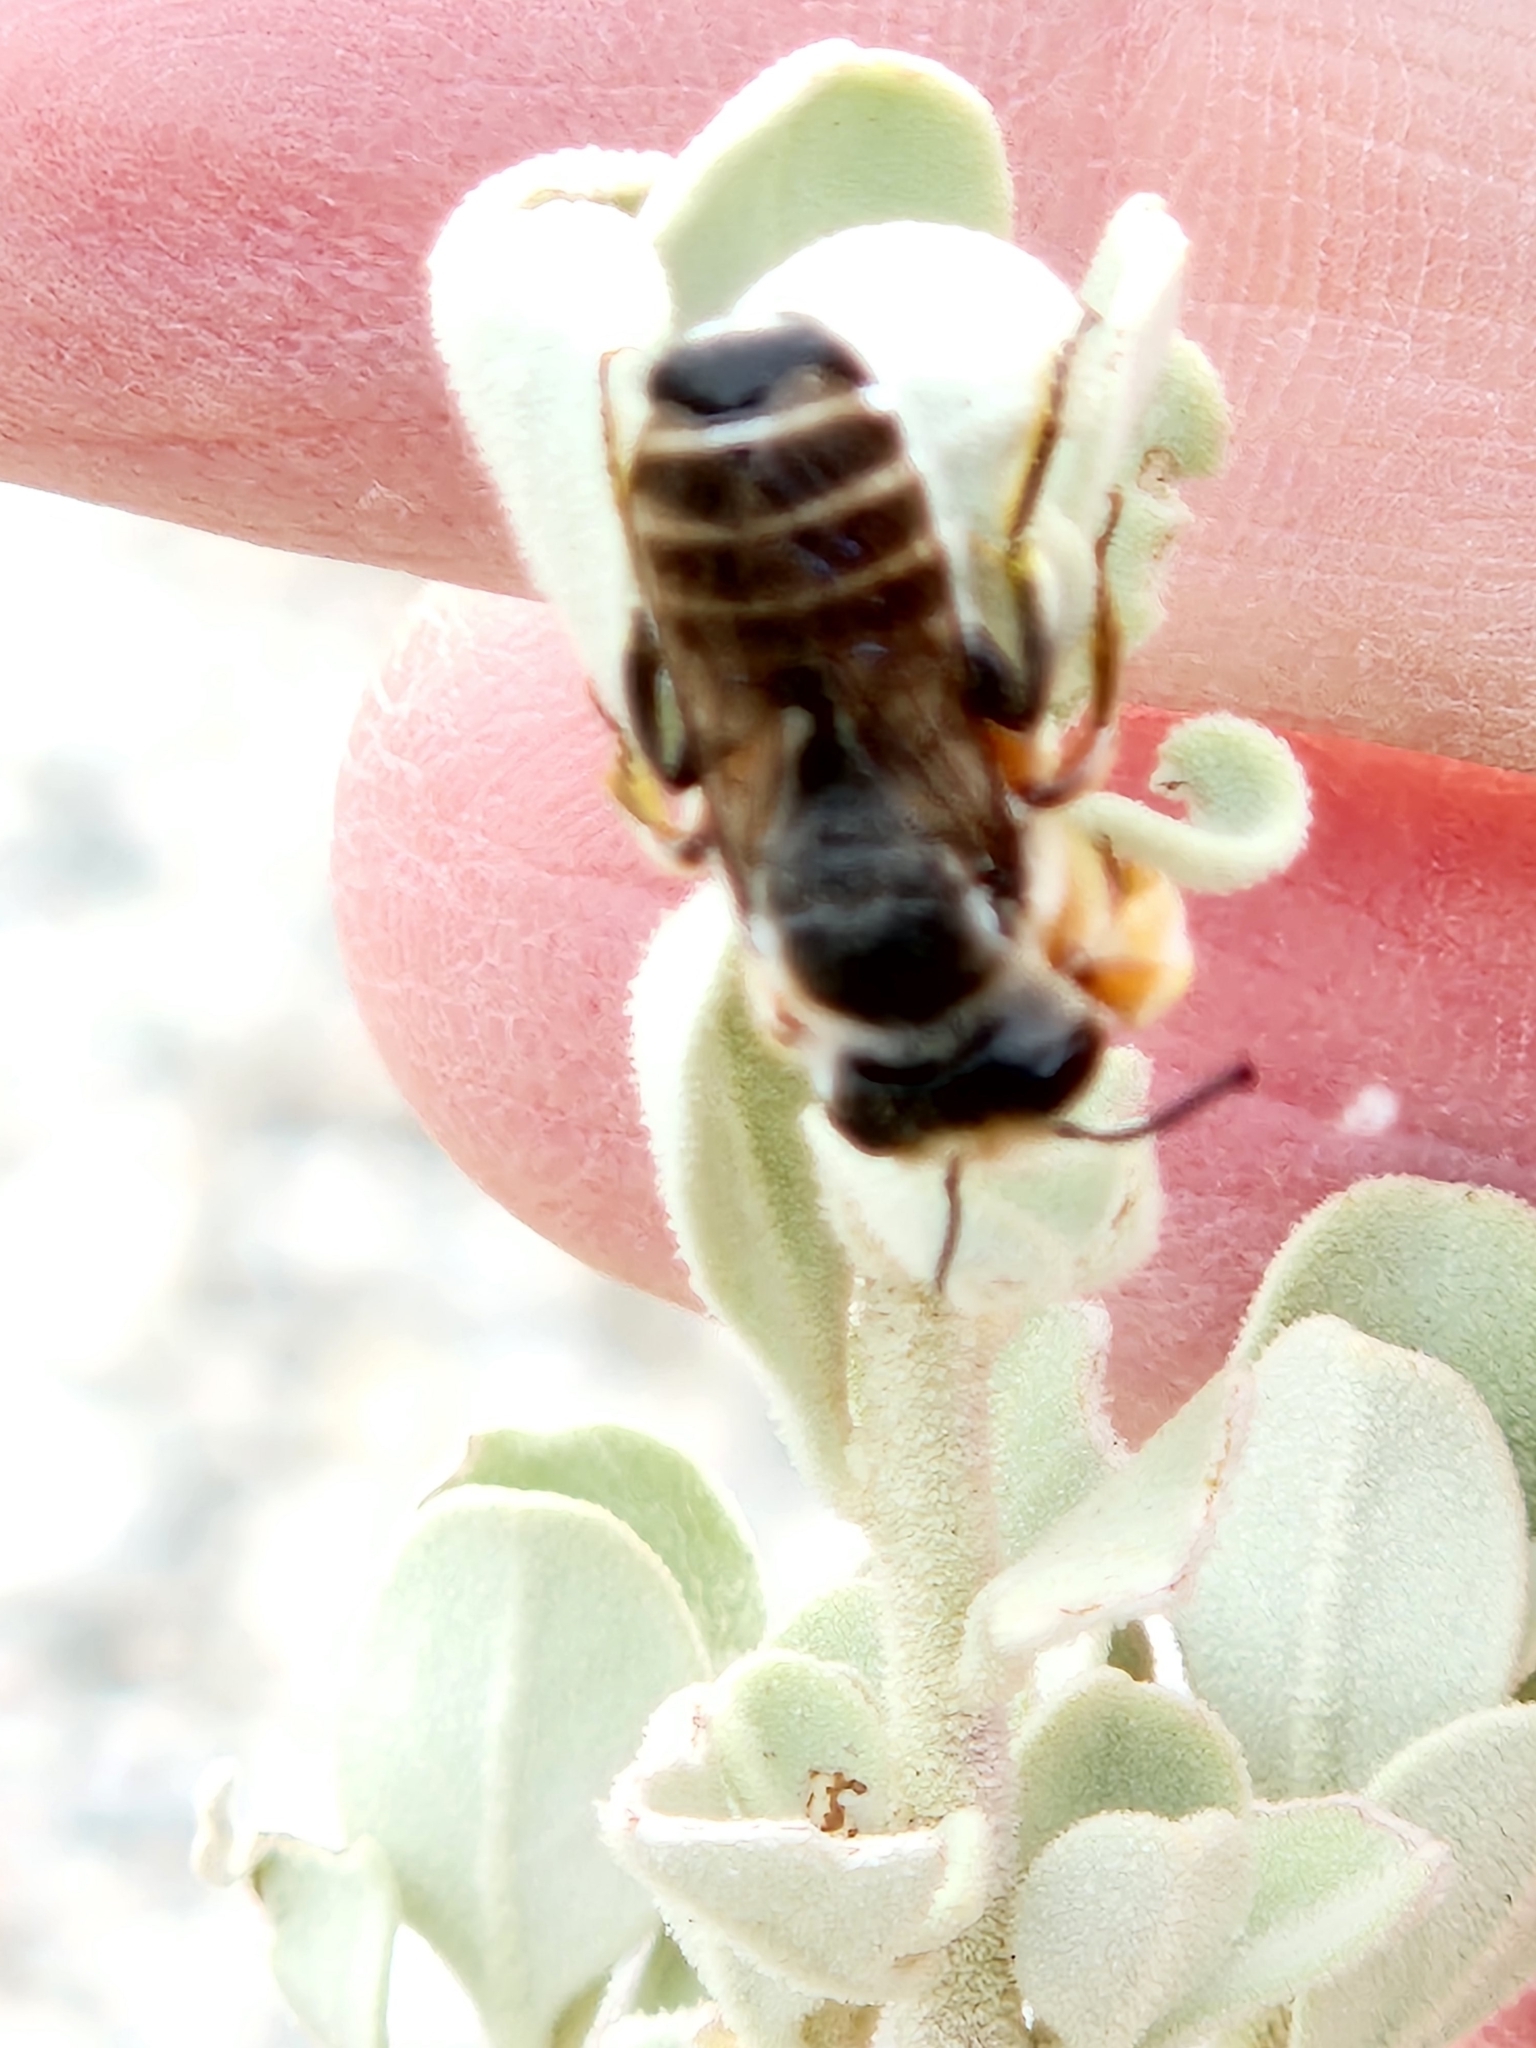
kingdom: Animalia
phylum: Arthropoda
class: Insecta
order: Hymenoptera
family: Megachilidae
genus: Megachile
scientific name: Megachile policaris
